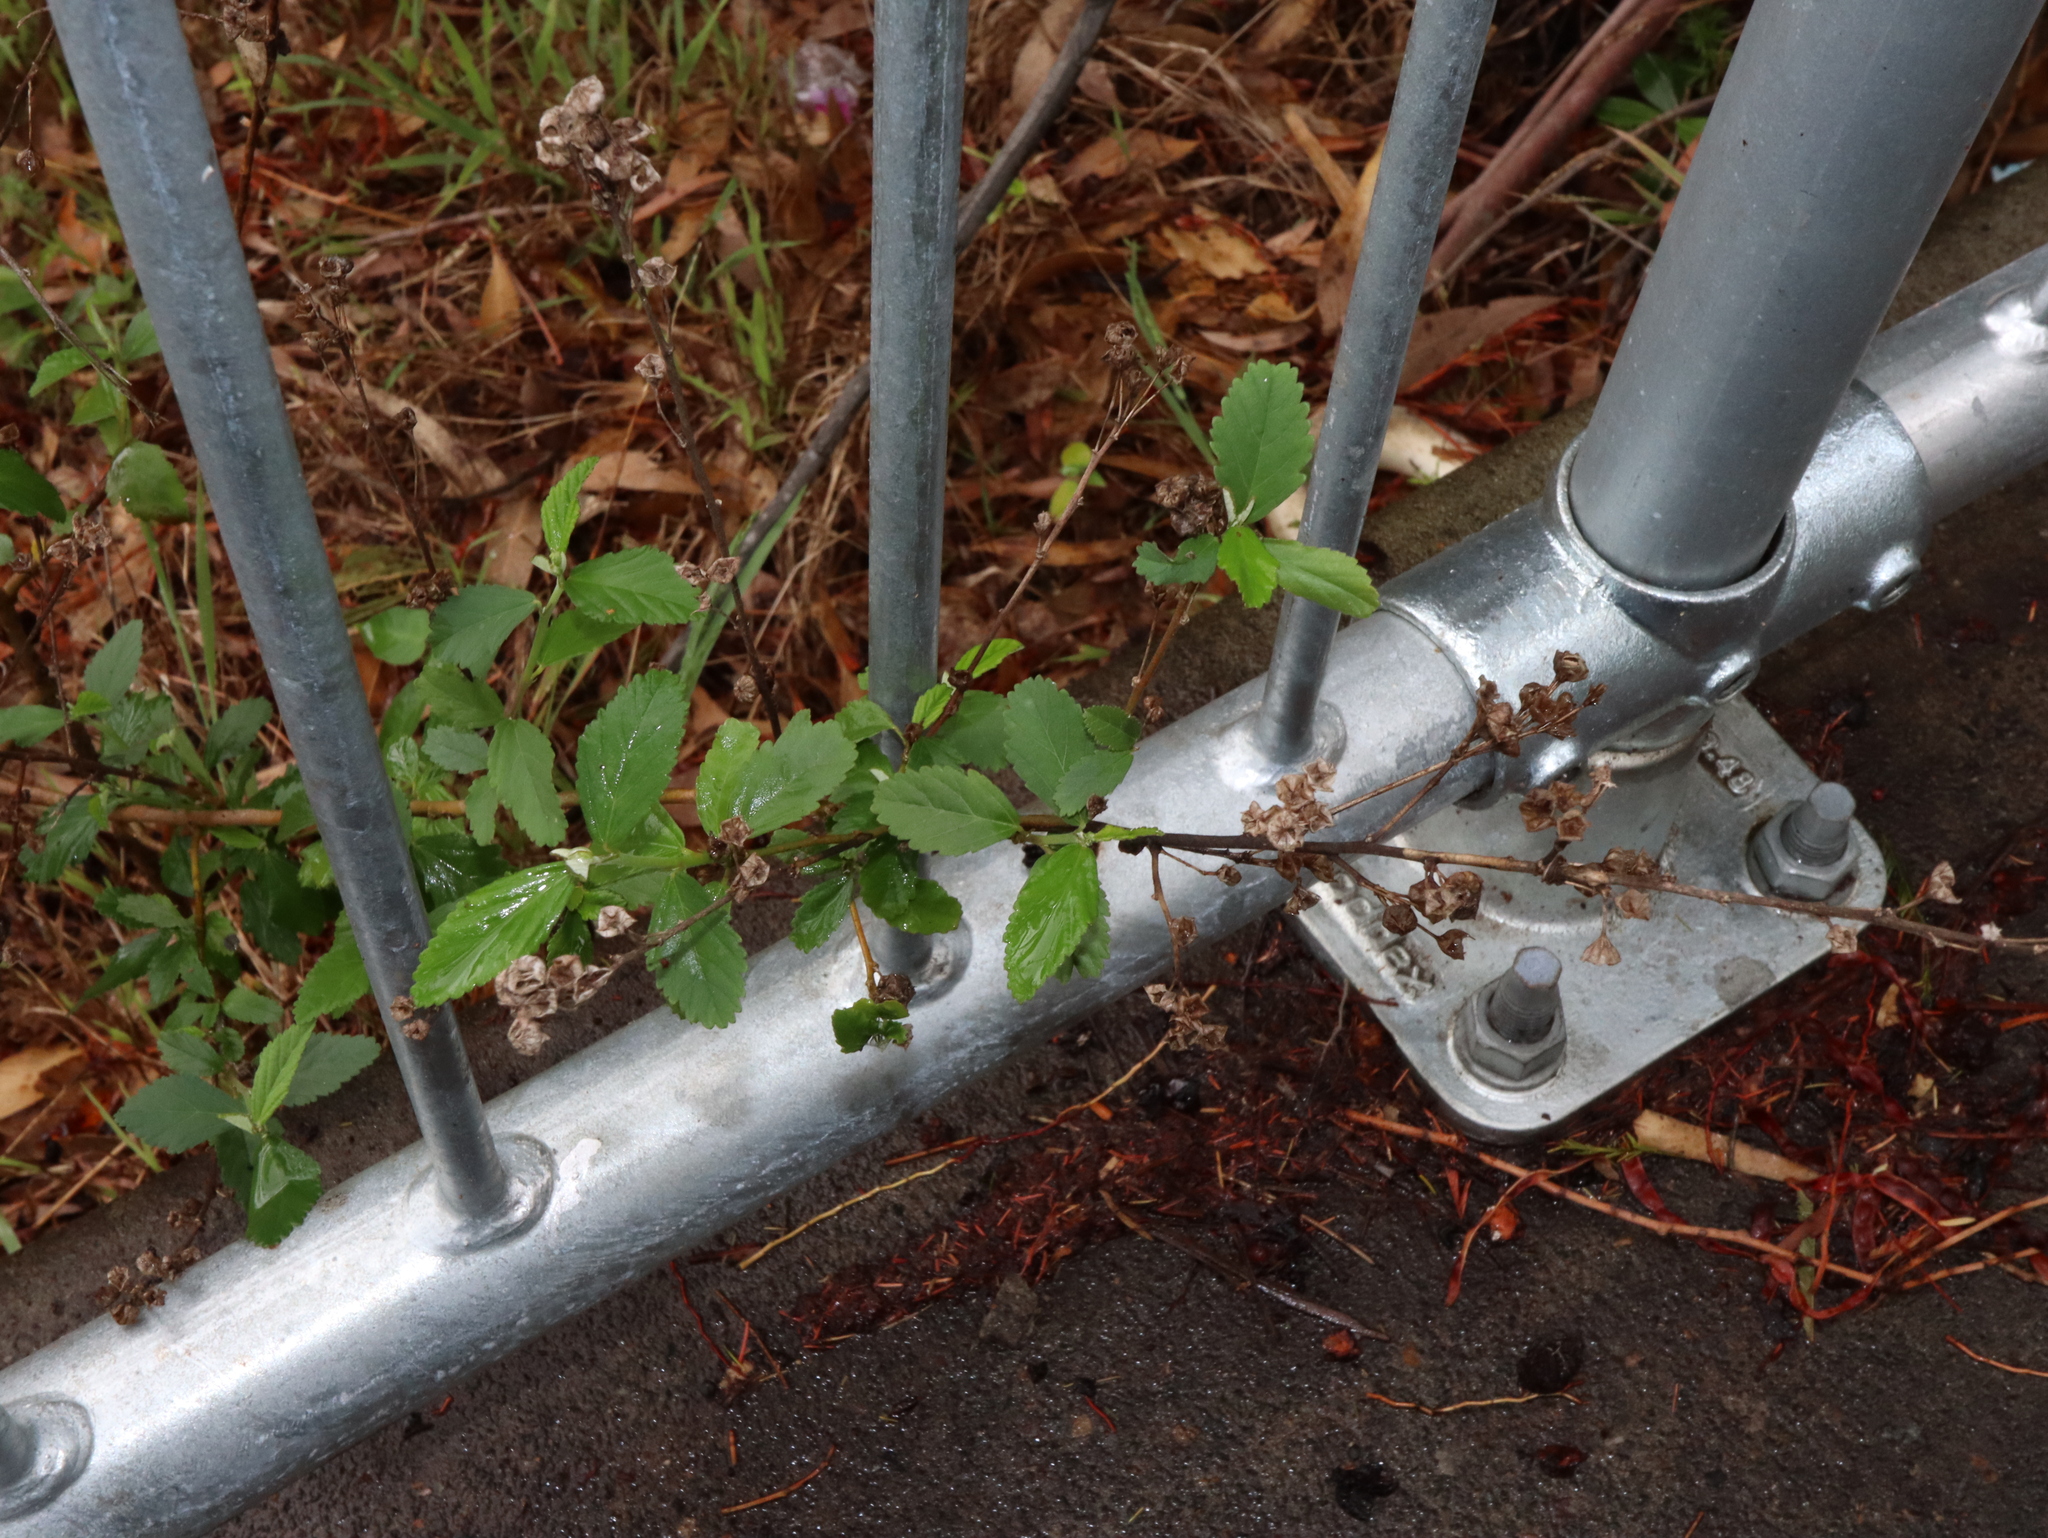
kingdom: Plantae
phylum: Tracheophyta
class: Magnoliopsida
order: Malvales
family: Malvaceae
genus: Sida
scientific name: Sida rhombifolia
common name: Queensland-hemp
